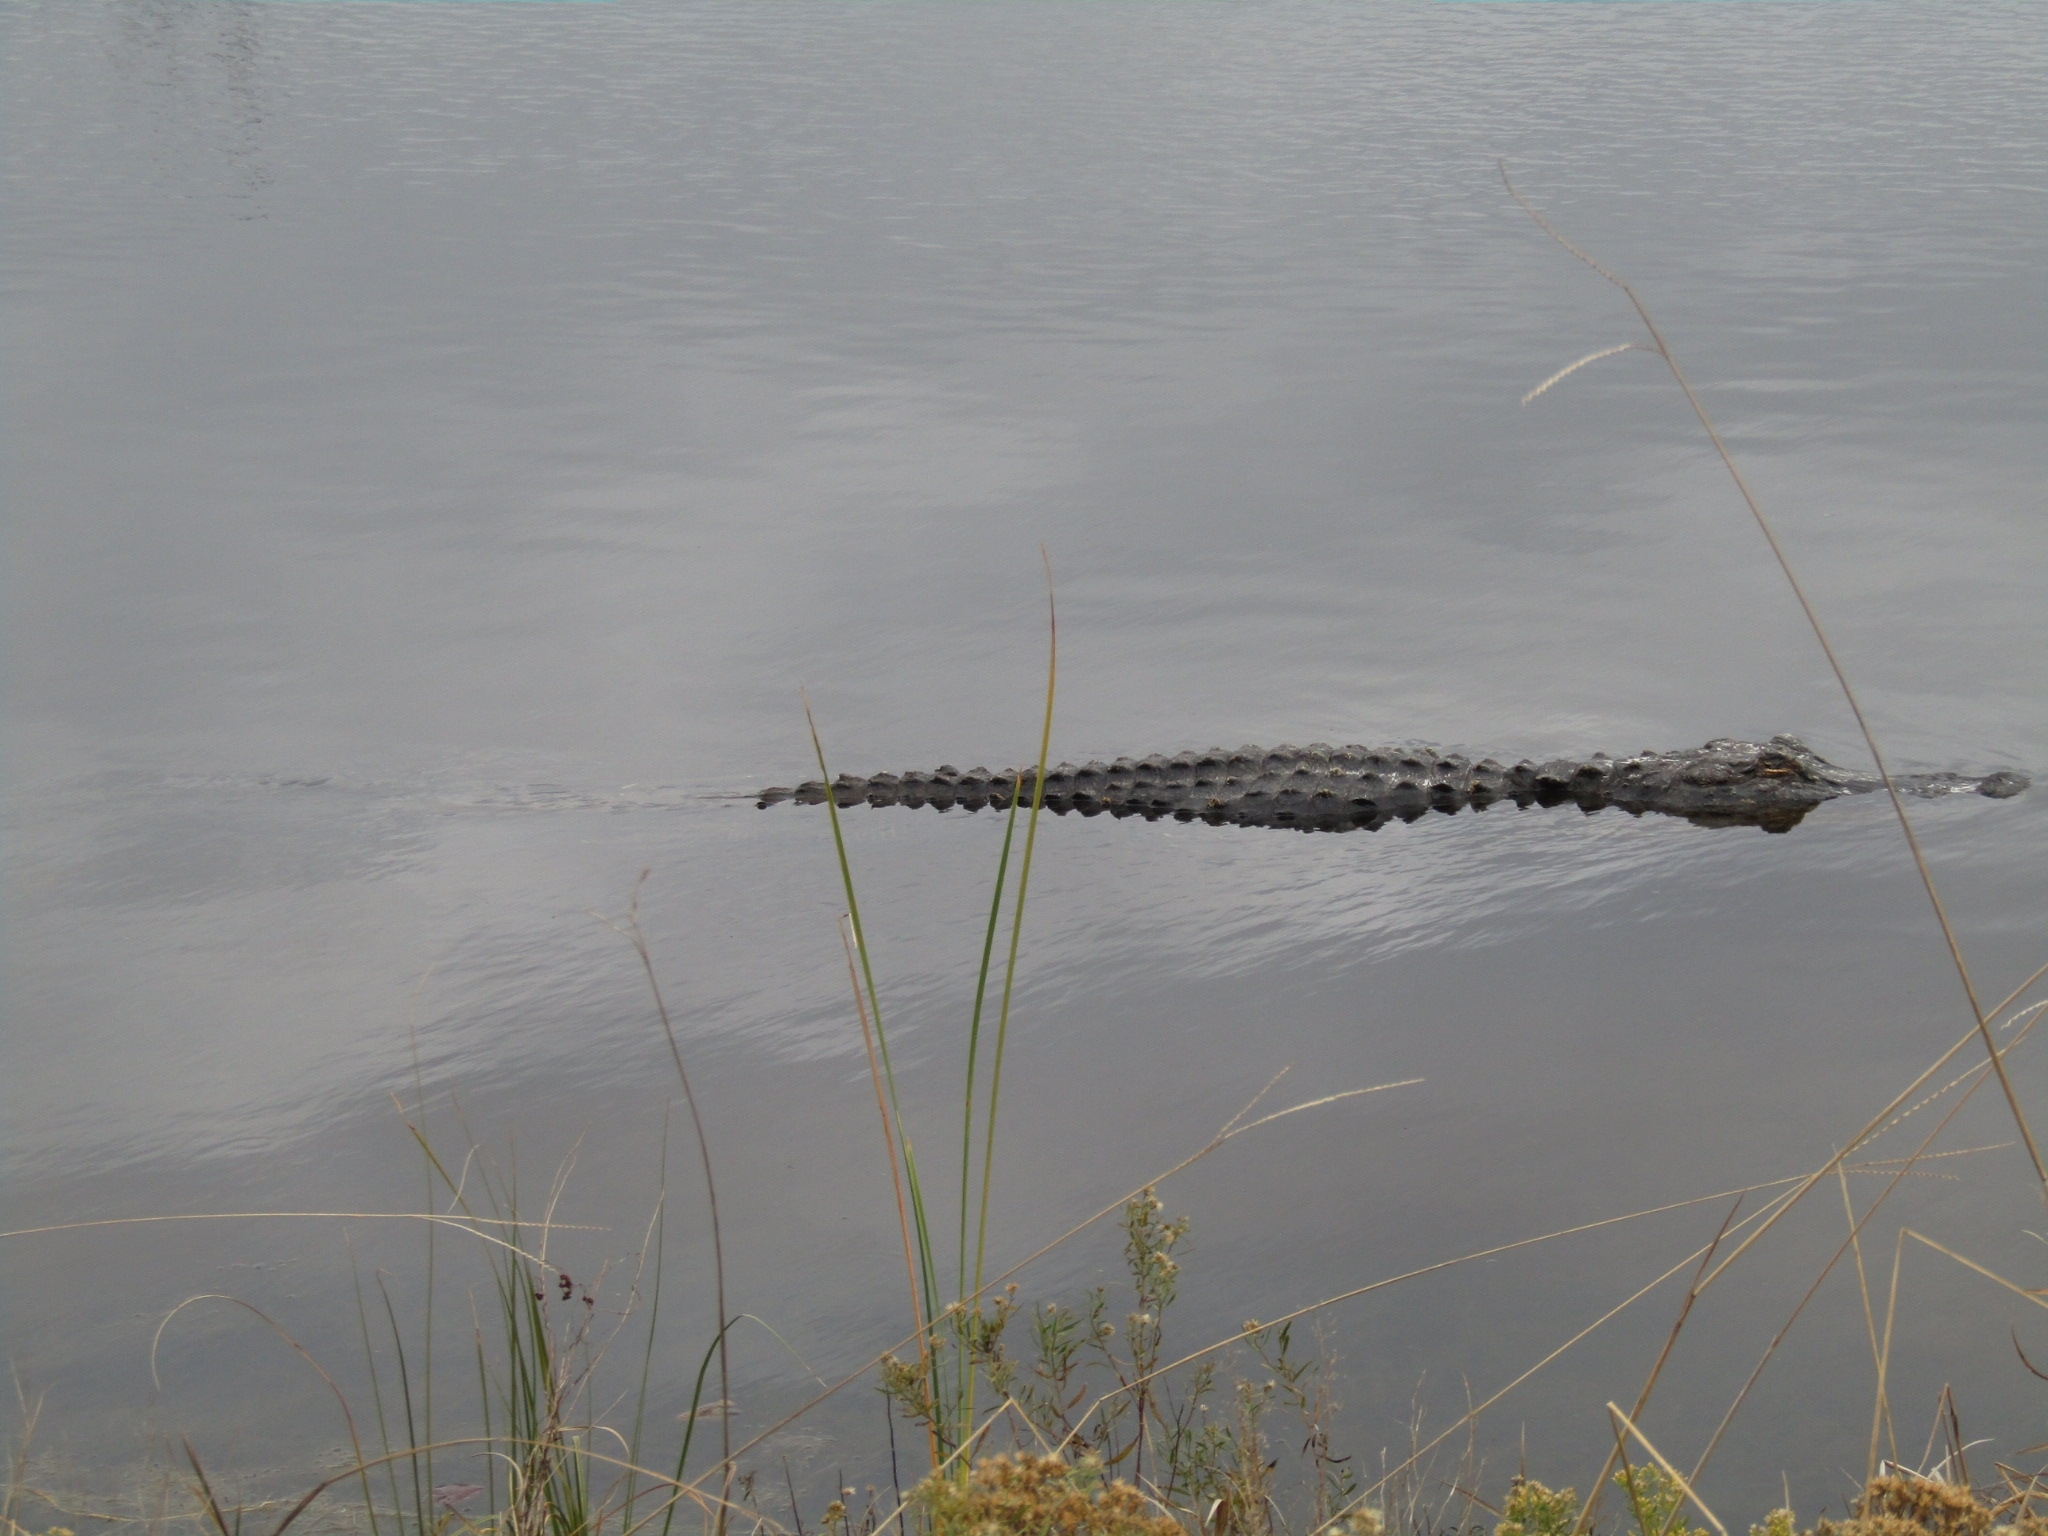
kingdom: Animalia
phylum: Chordata
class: Crocodylia
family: Alligatoridae
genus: Alligator
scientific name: Alligator mississippiensis
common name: American alligator
